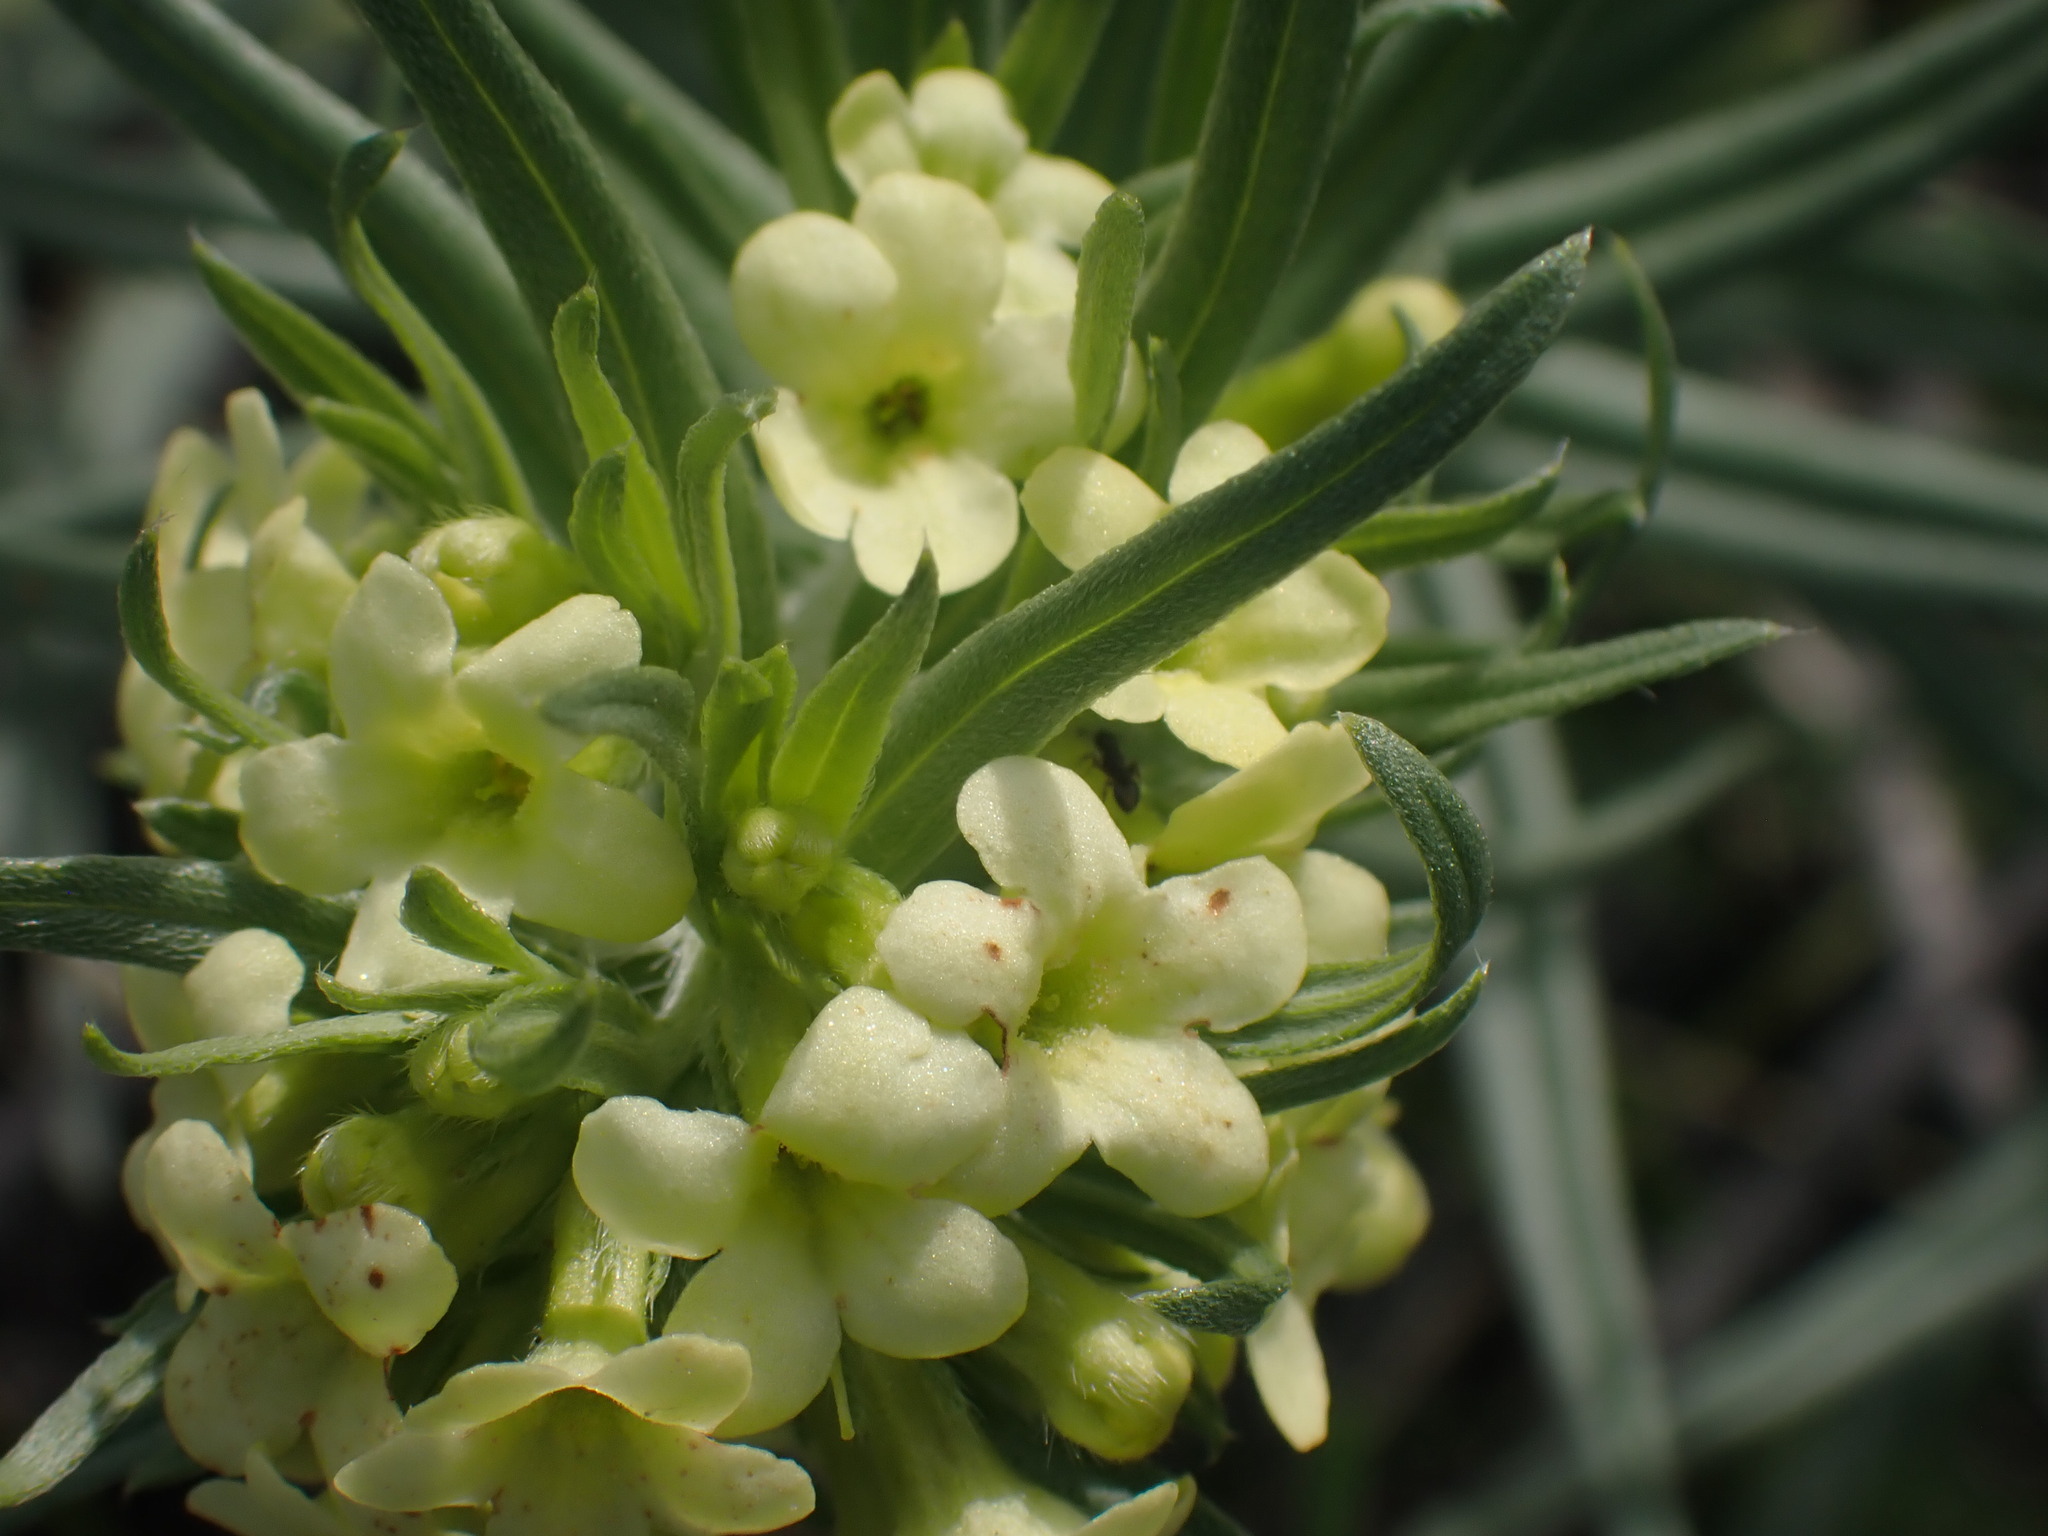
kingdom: Plantae
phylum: Tracheophyta
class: Magnoliopsida
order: Boraginales
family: Boraginaceae
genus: Lithospermum
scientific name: Lithospermum ruderale
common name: Western gromwell
